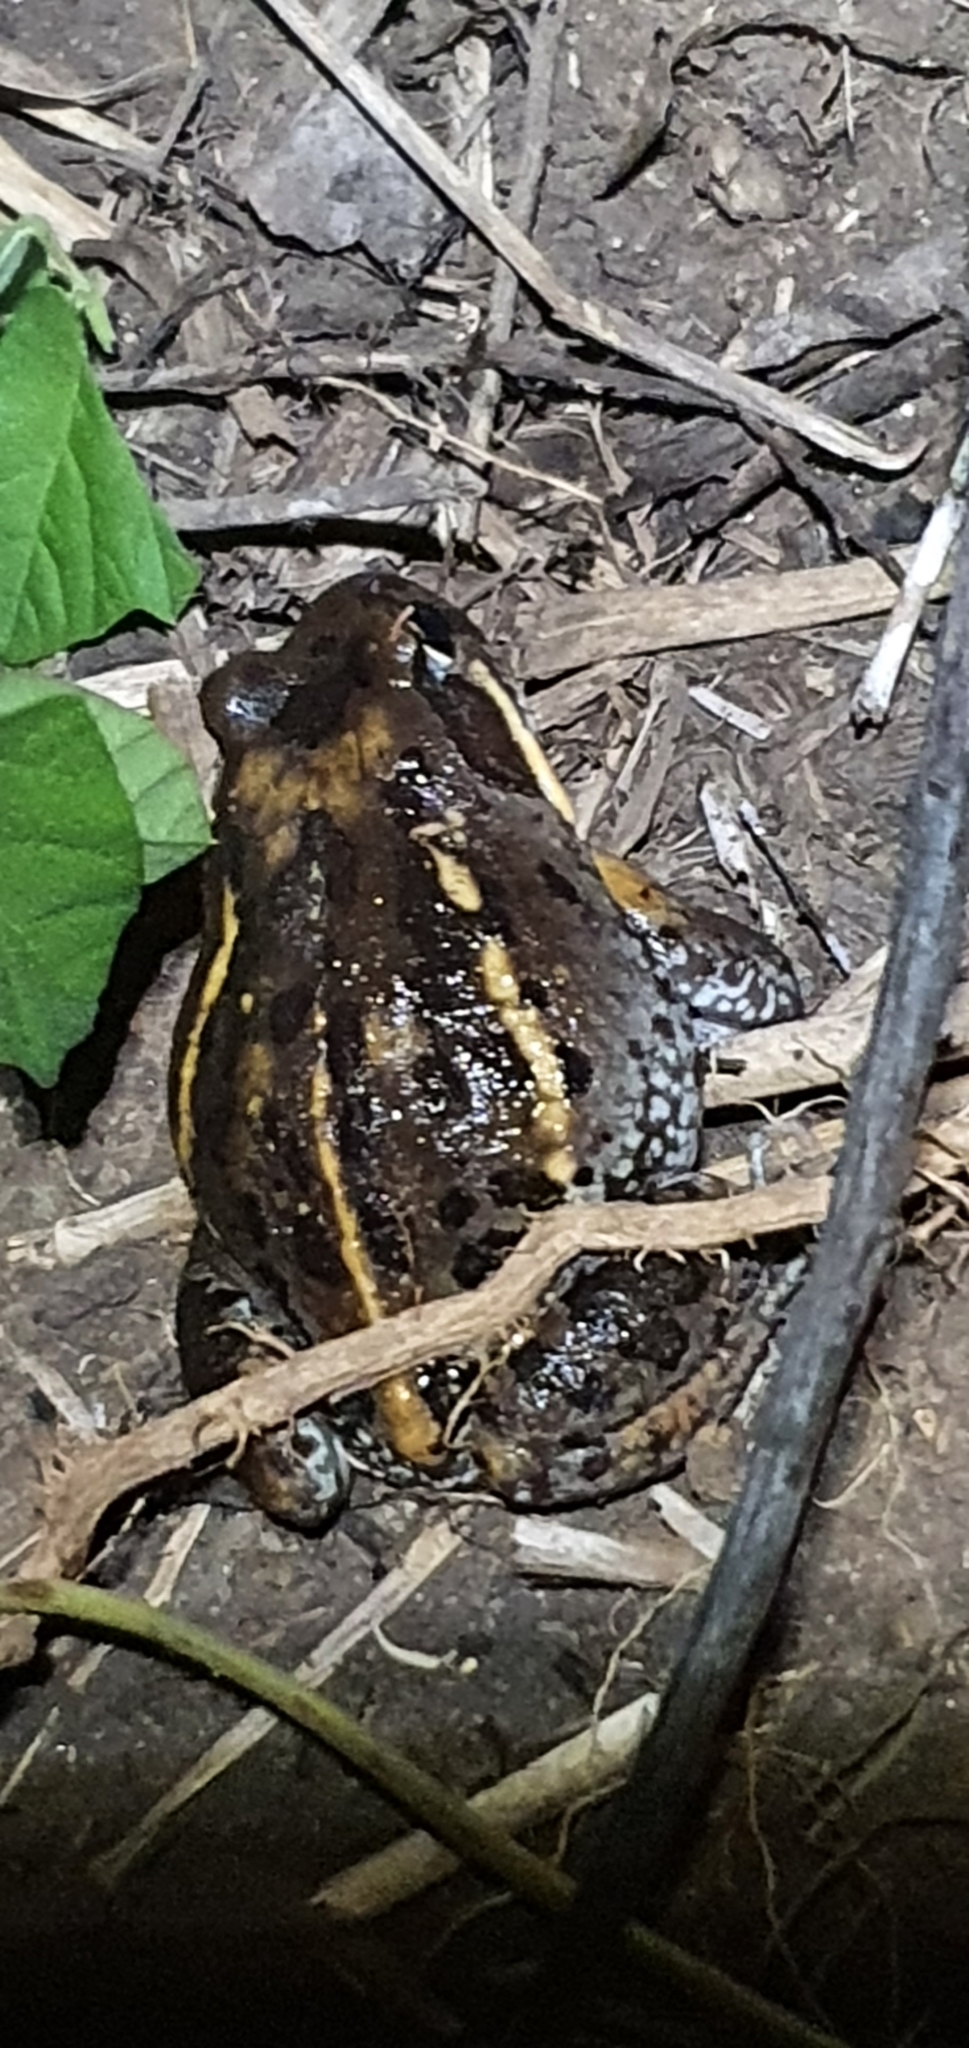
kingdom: Animalia
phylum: Chordata
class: Amphibia
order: Anura
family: Limnodynastidae
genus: Limnodynastes
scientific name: Limnodynastes salmini
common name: Salmon-striped frog
